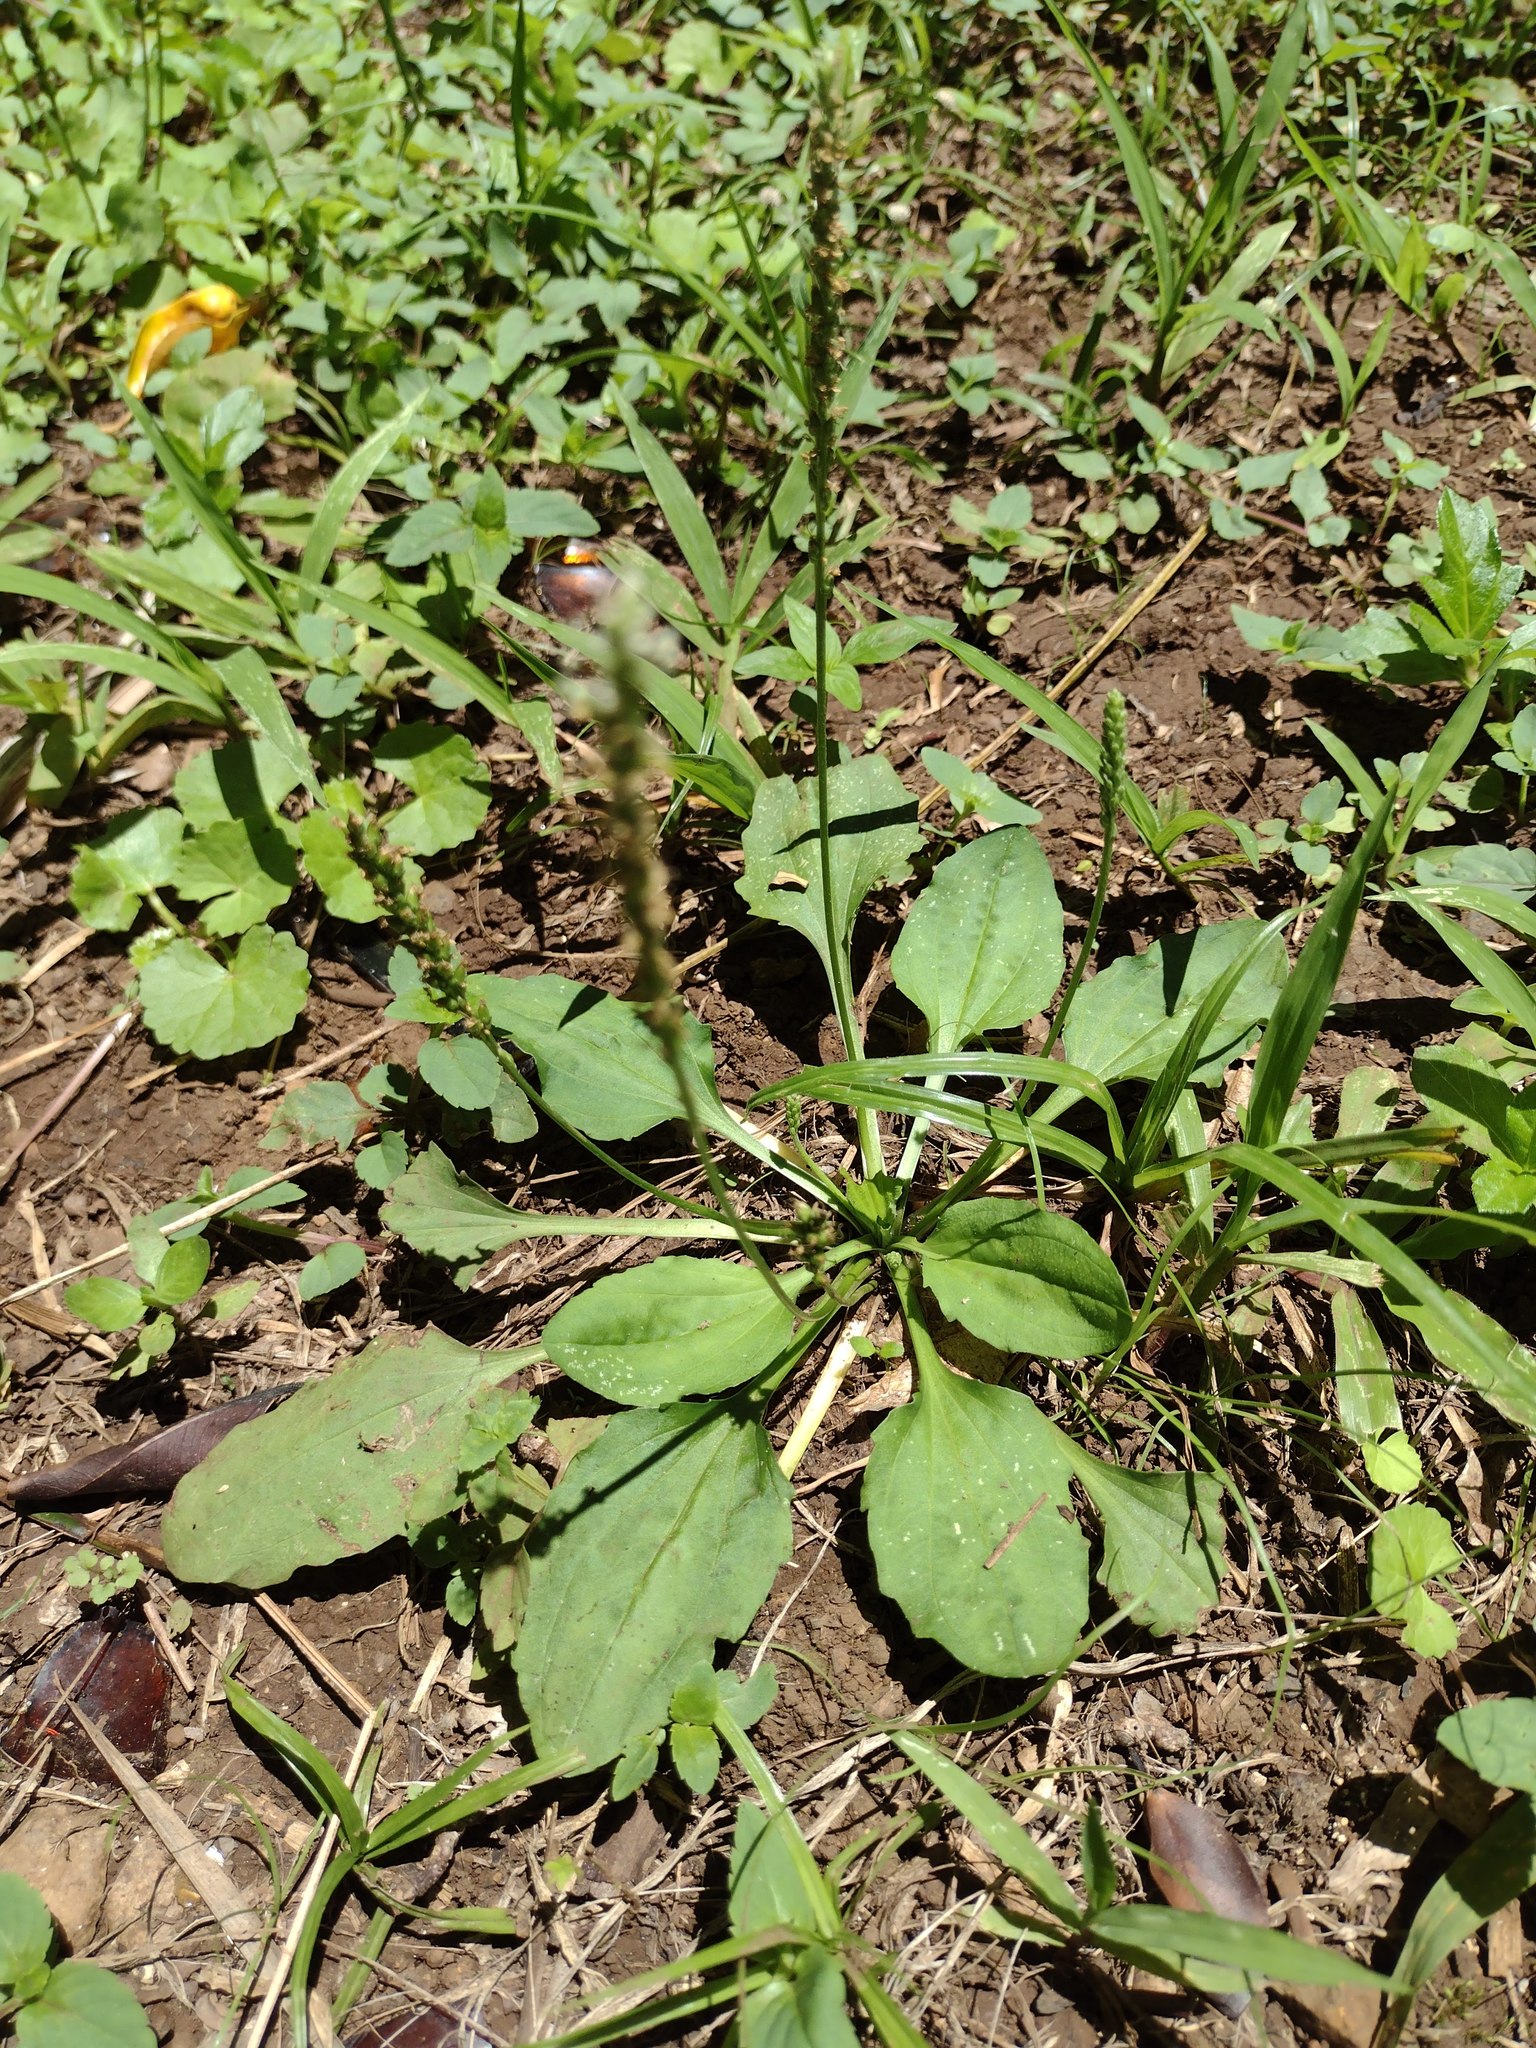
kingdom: Plantae
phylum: Tracheophyta
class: Magnoliopsida
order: Lamiales
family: Plantaginaceae
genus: Plantago
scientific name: Plantago major
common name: Common plantain
